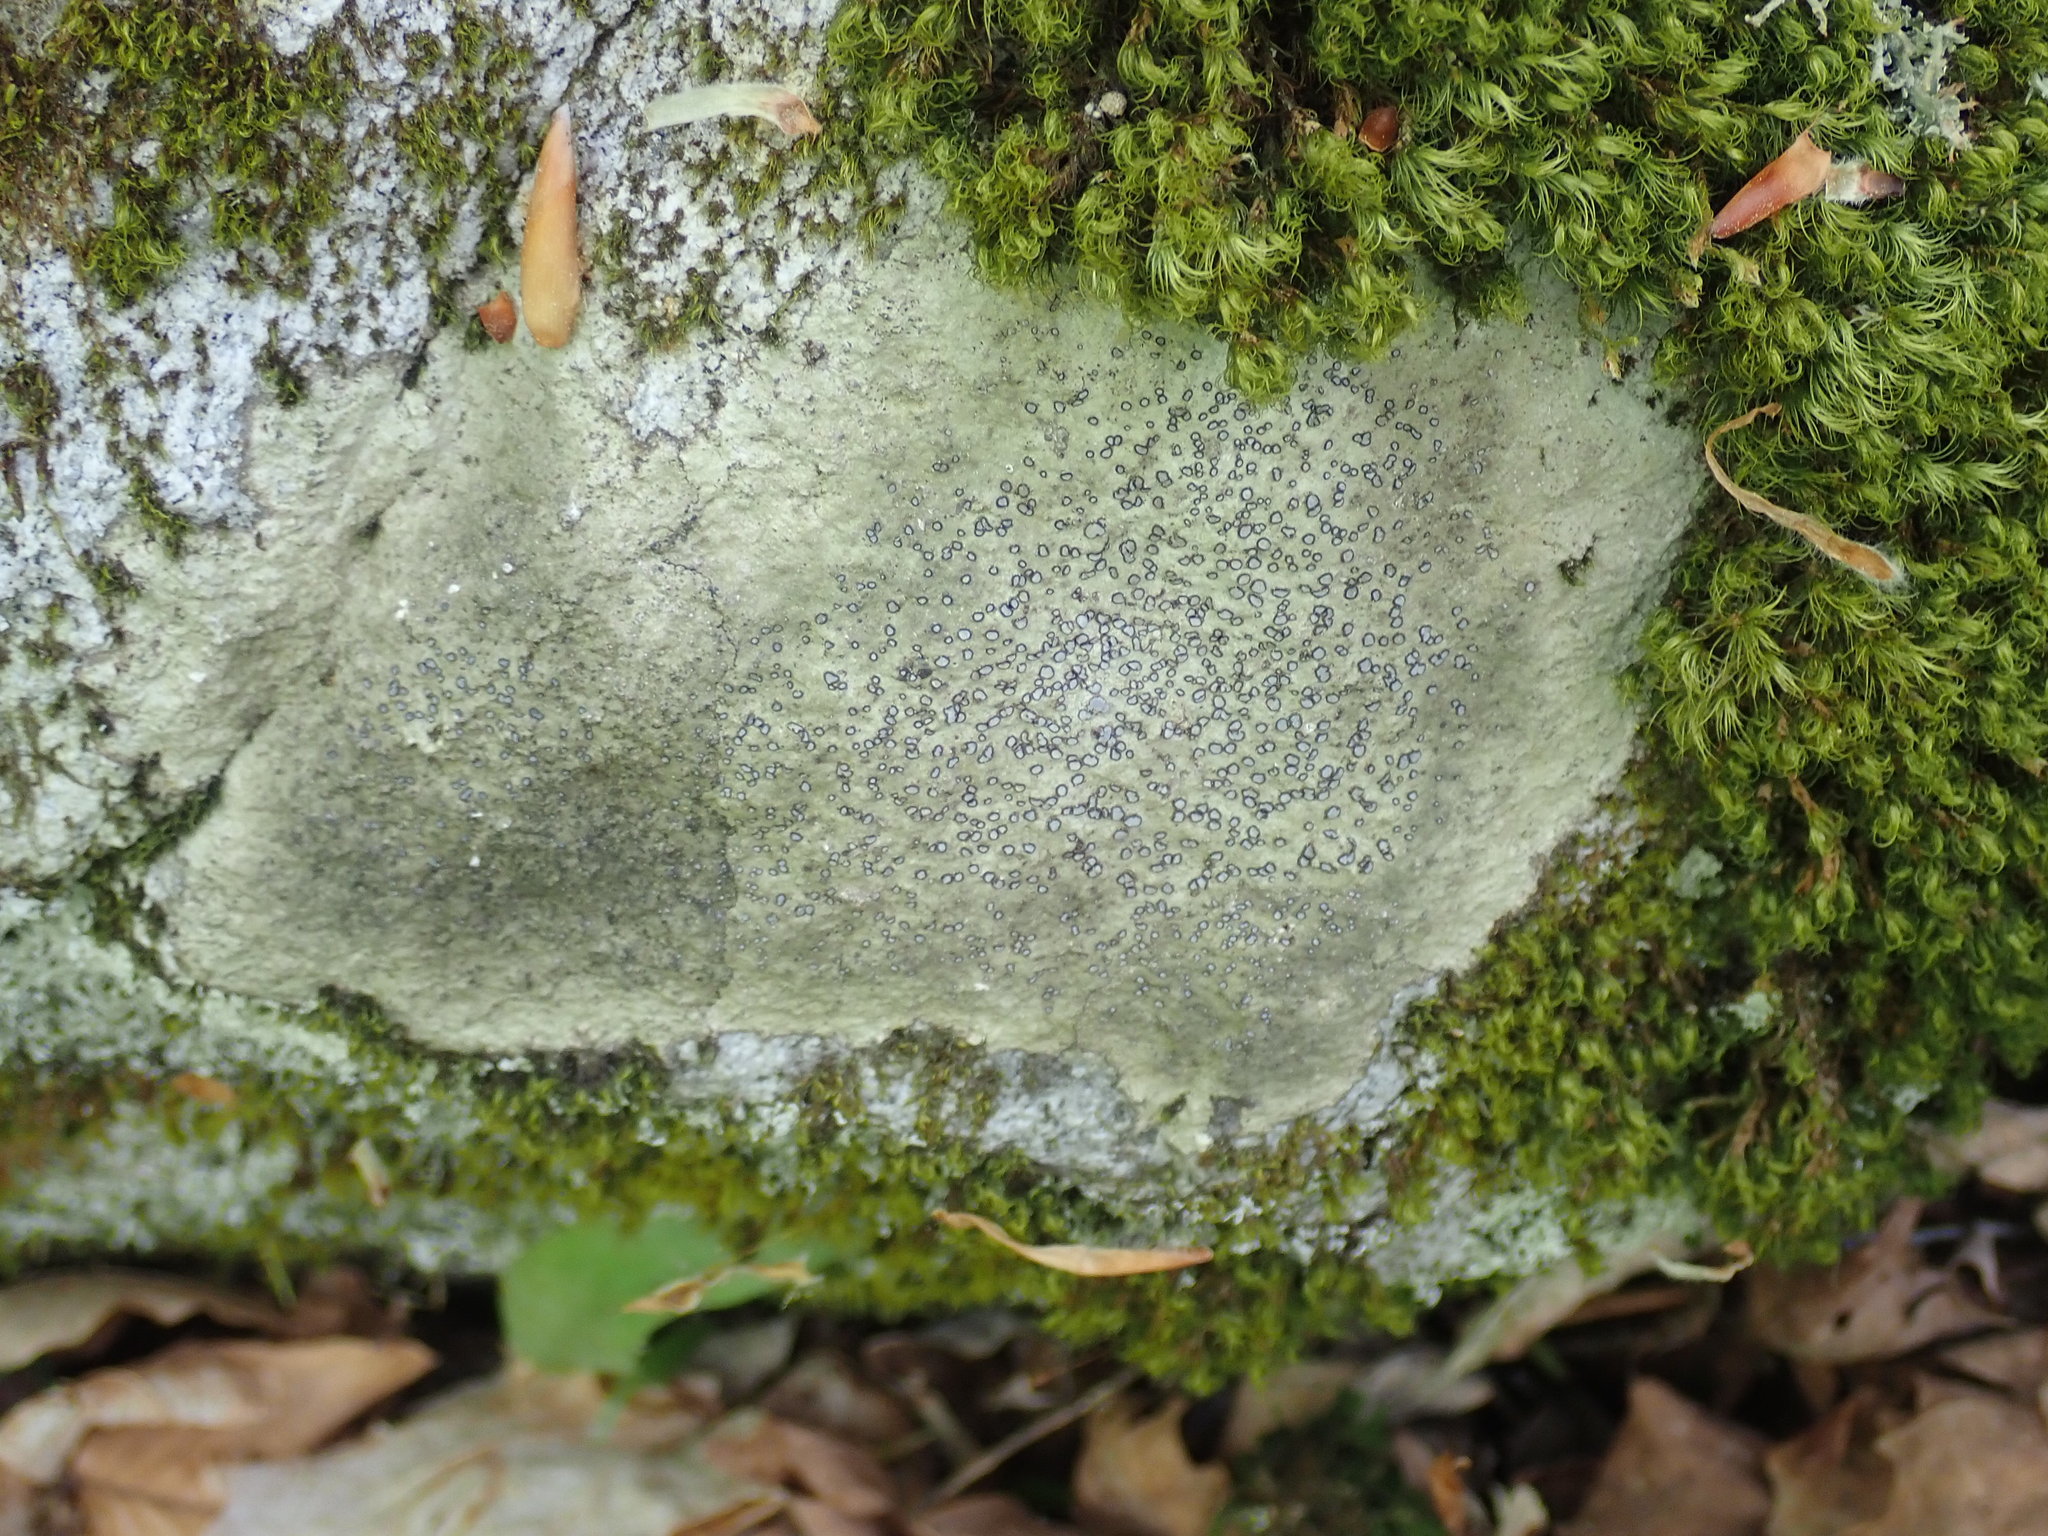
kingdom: Fungi
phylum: Ascomycota
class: Lecanoromycetes
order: Lecideales
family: Lecideaceae
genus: Porpidia
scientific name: Porpidia albocaerulescens
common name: Smokey-eyed boulder lichen
